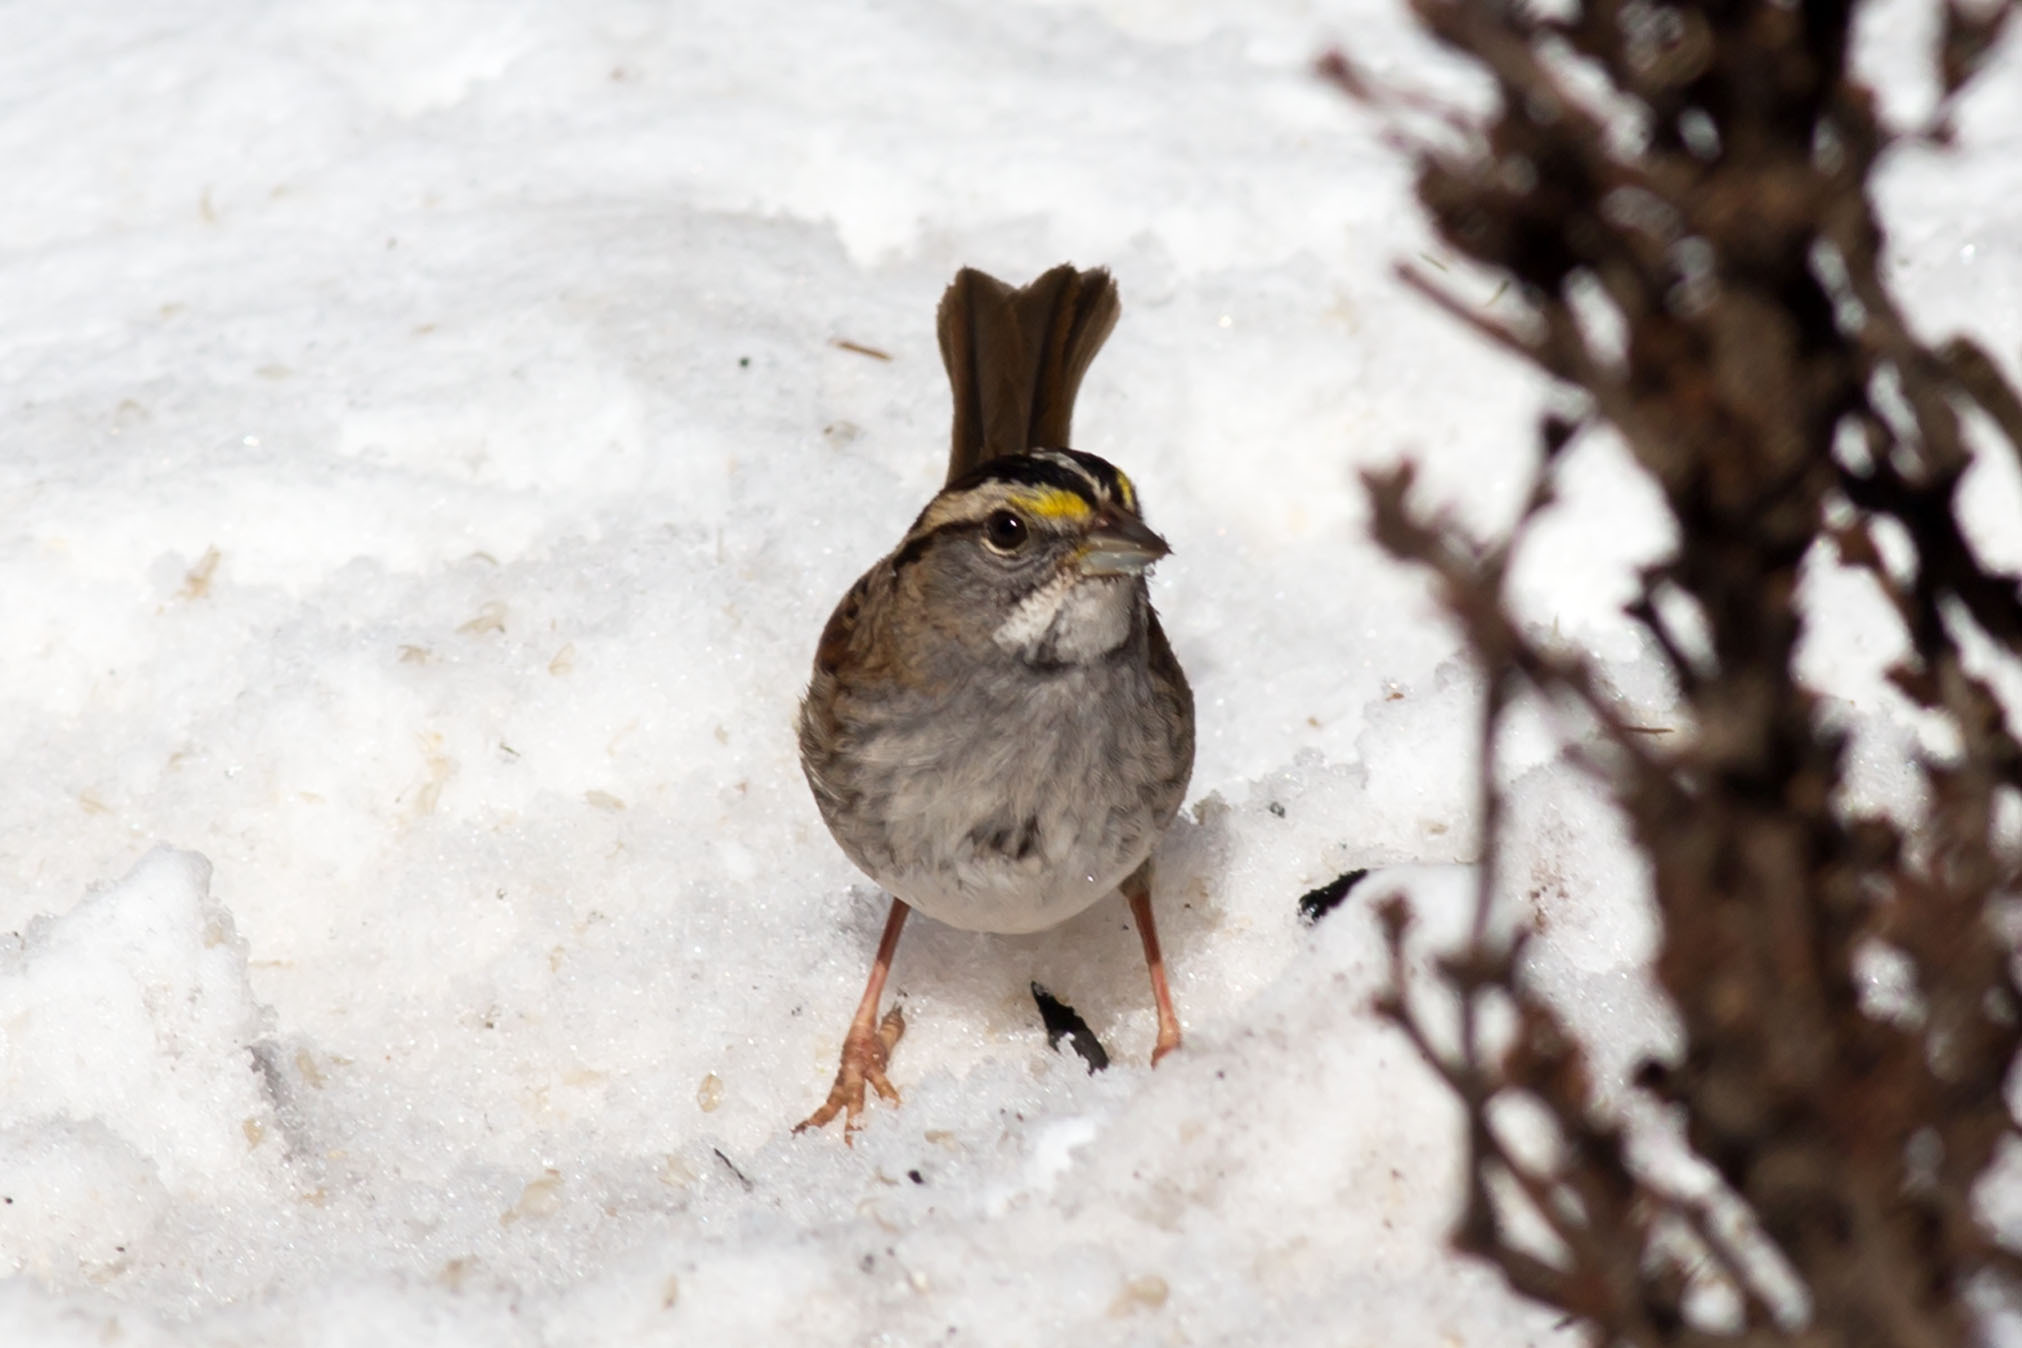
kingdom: Animalia
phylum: Chordata
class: Aves
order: Passeriformes
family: Passerellidae
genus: Zonotrichia
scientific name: Zonotrichia albicollis
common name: White-throated sparrow
